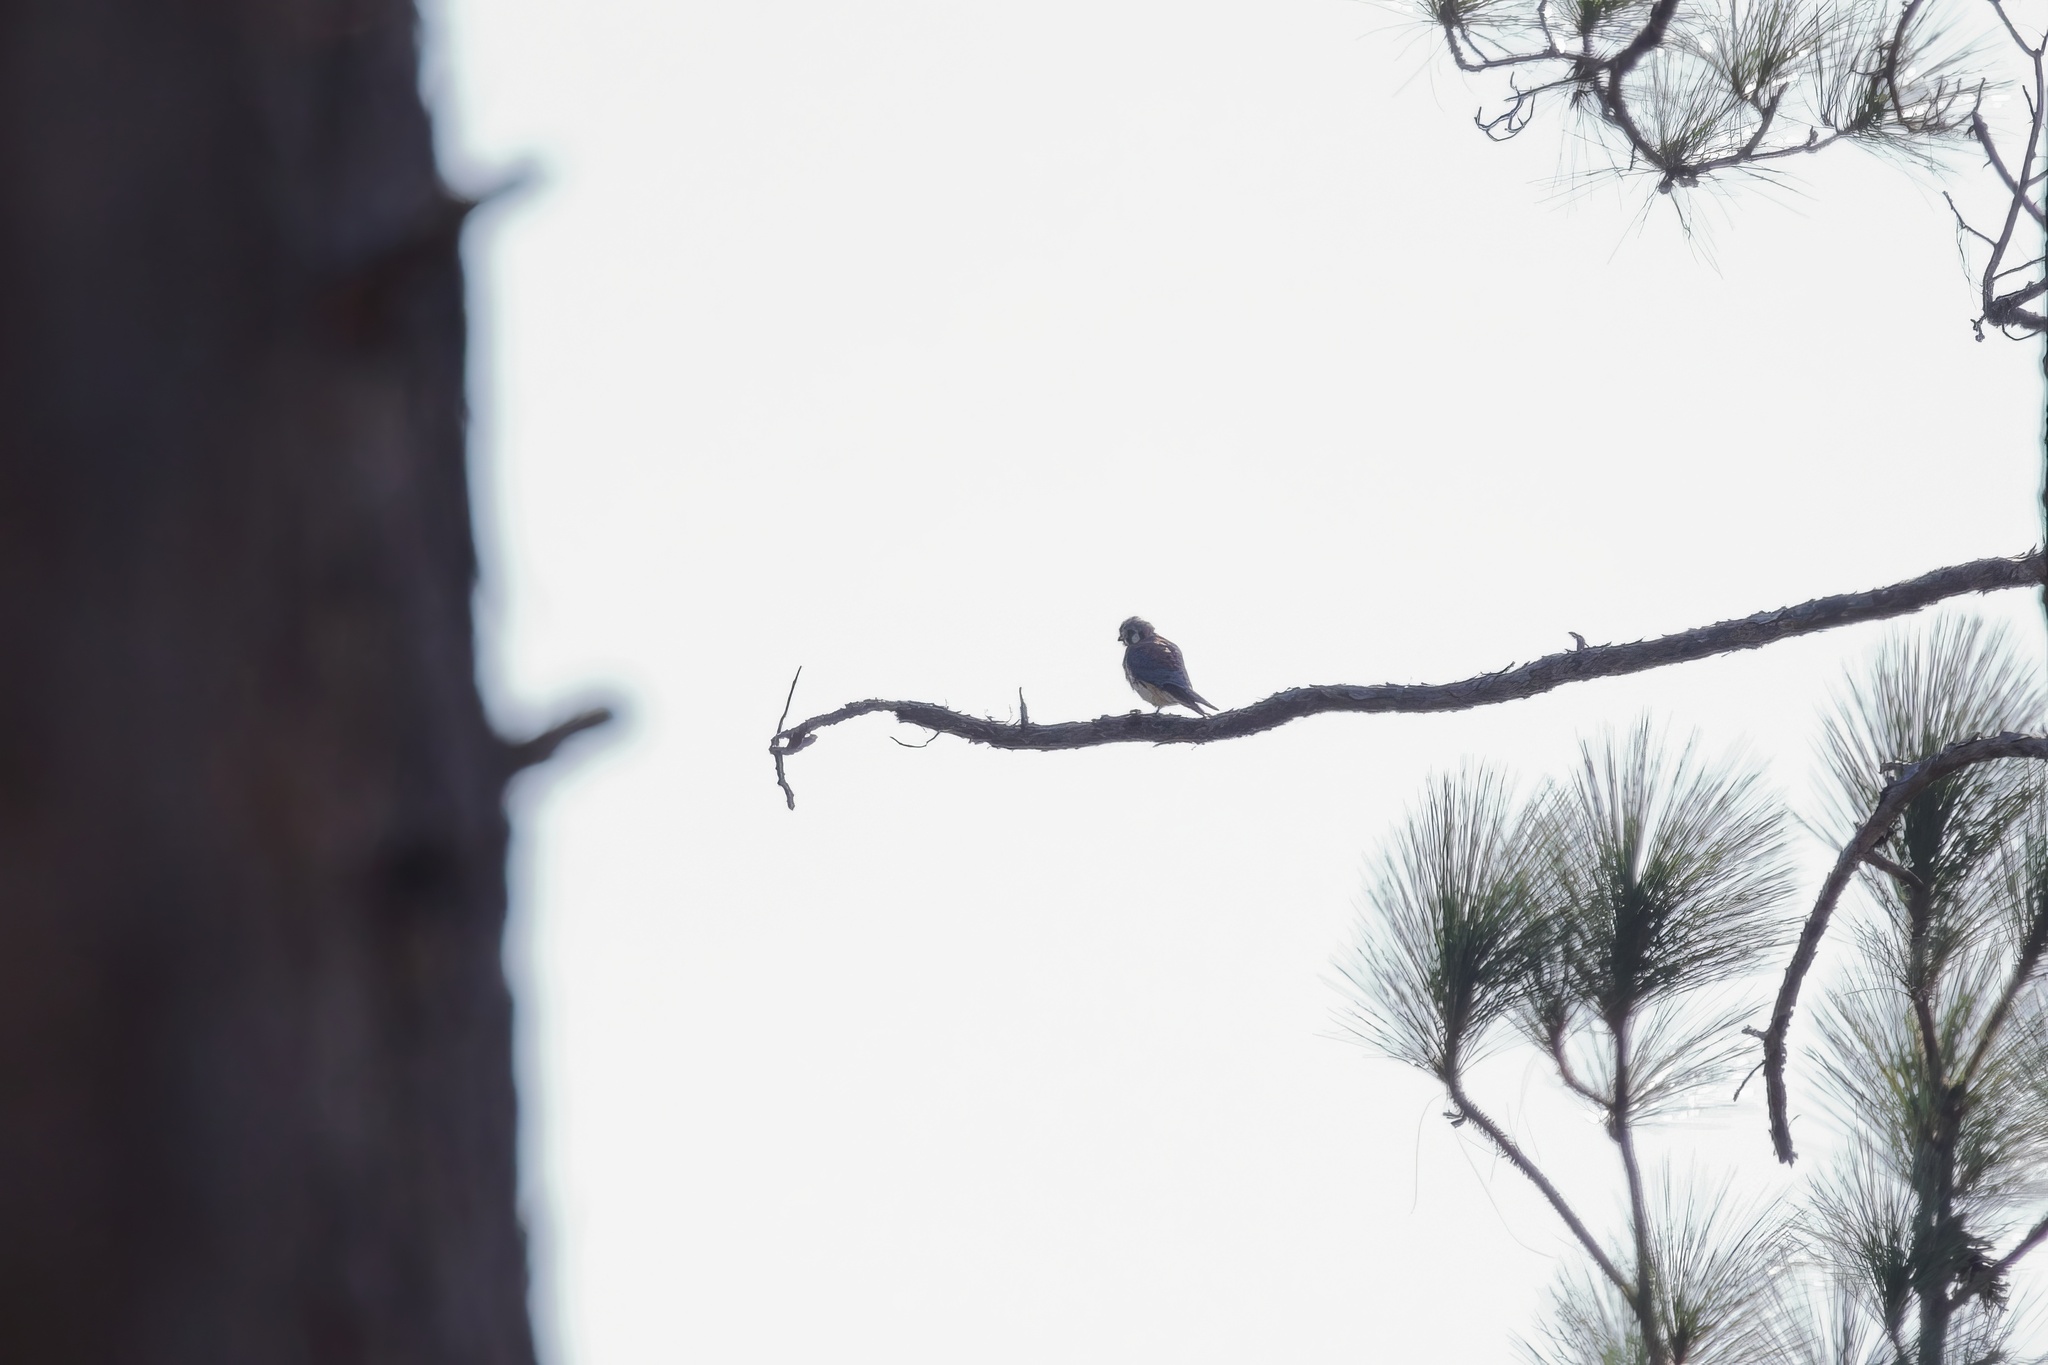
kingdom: Animalia
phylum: Chordata
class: Aves
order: Falconiformes
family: Falconidae
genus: Falco
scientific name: Falco sparverius
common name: American kestrel
